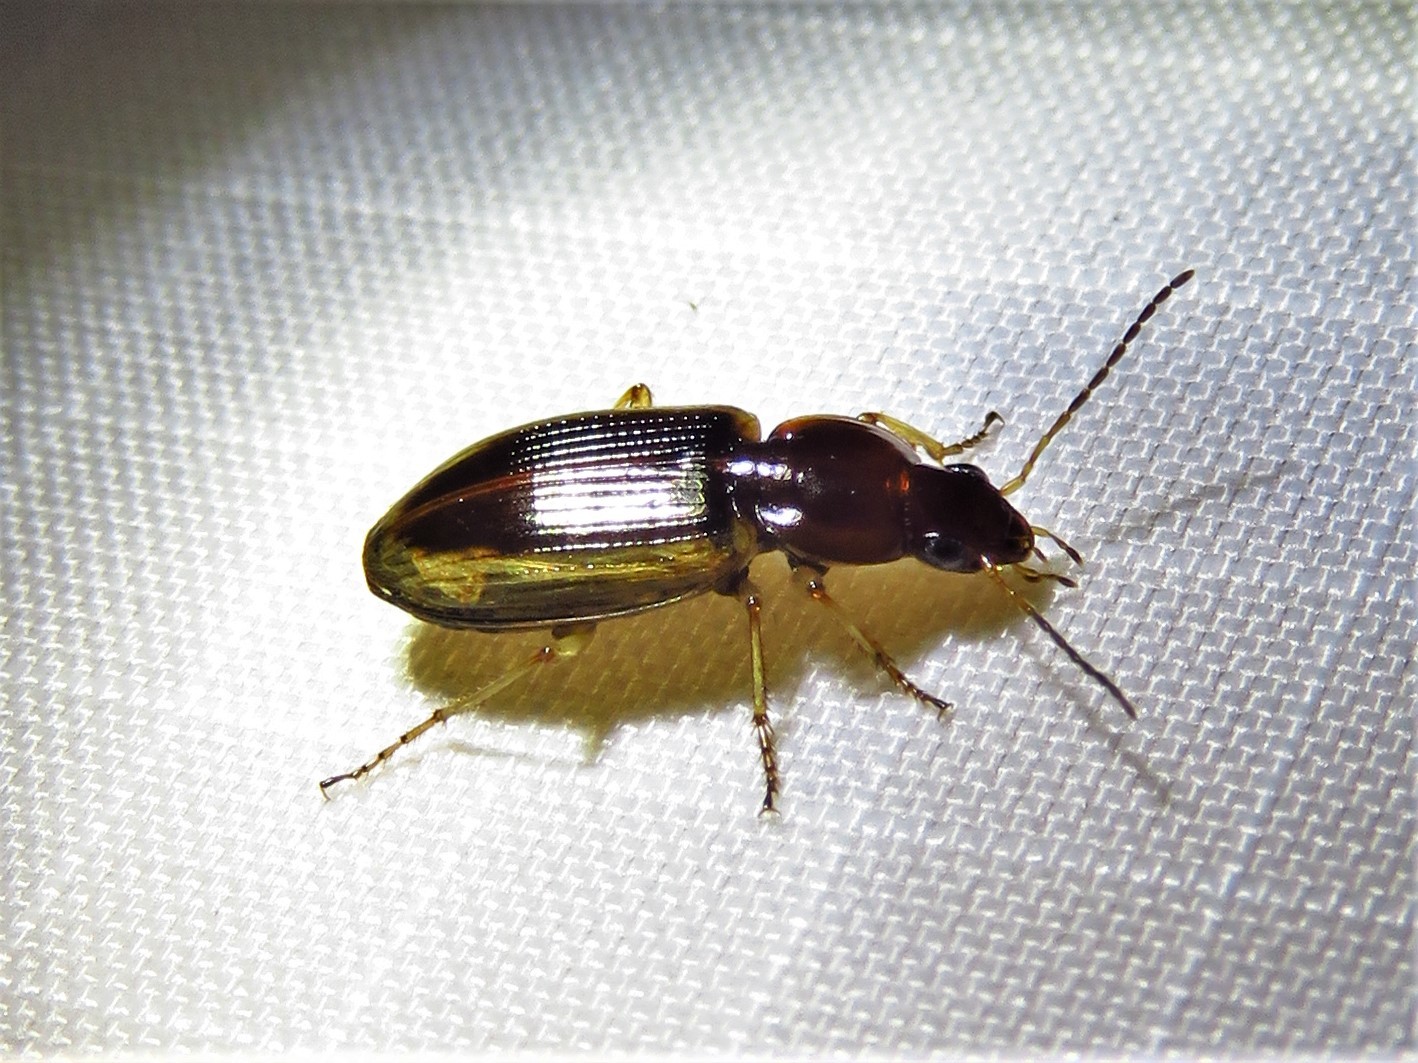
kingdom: Animalia
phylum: Arthropoda
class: Insecta
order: Coleoptera
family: Carabidae
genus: Agonum
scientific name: Agonum pallipes
